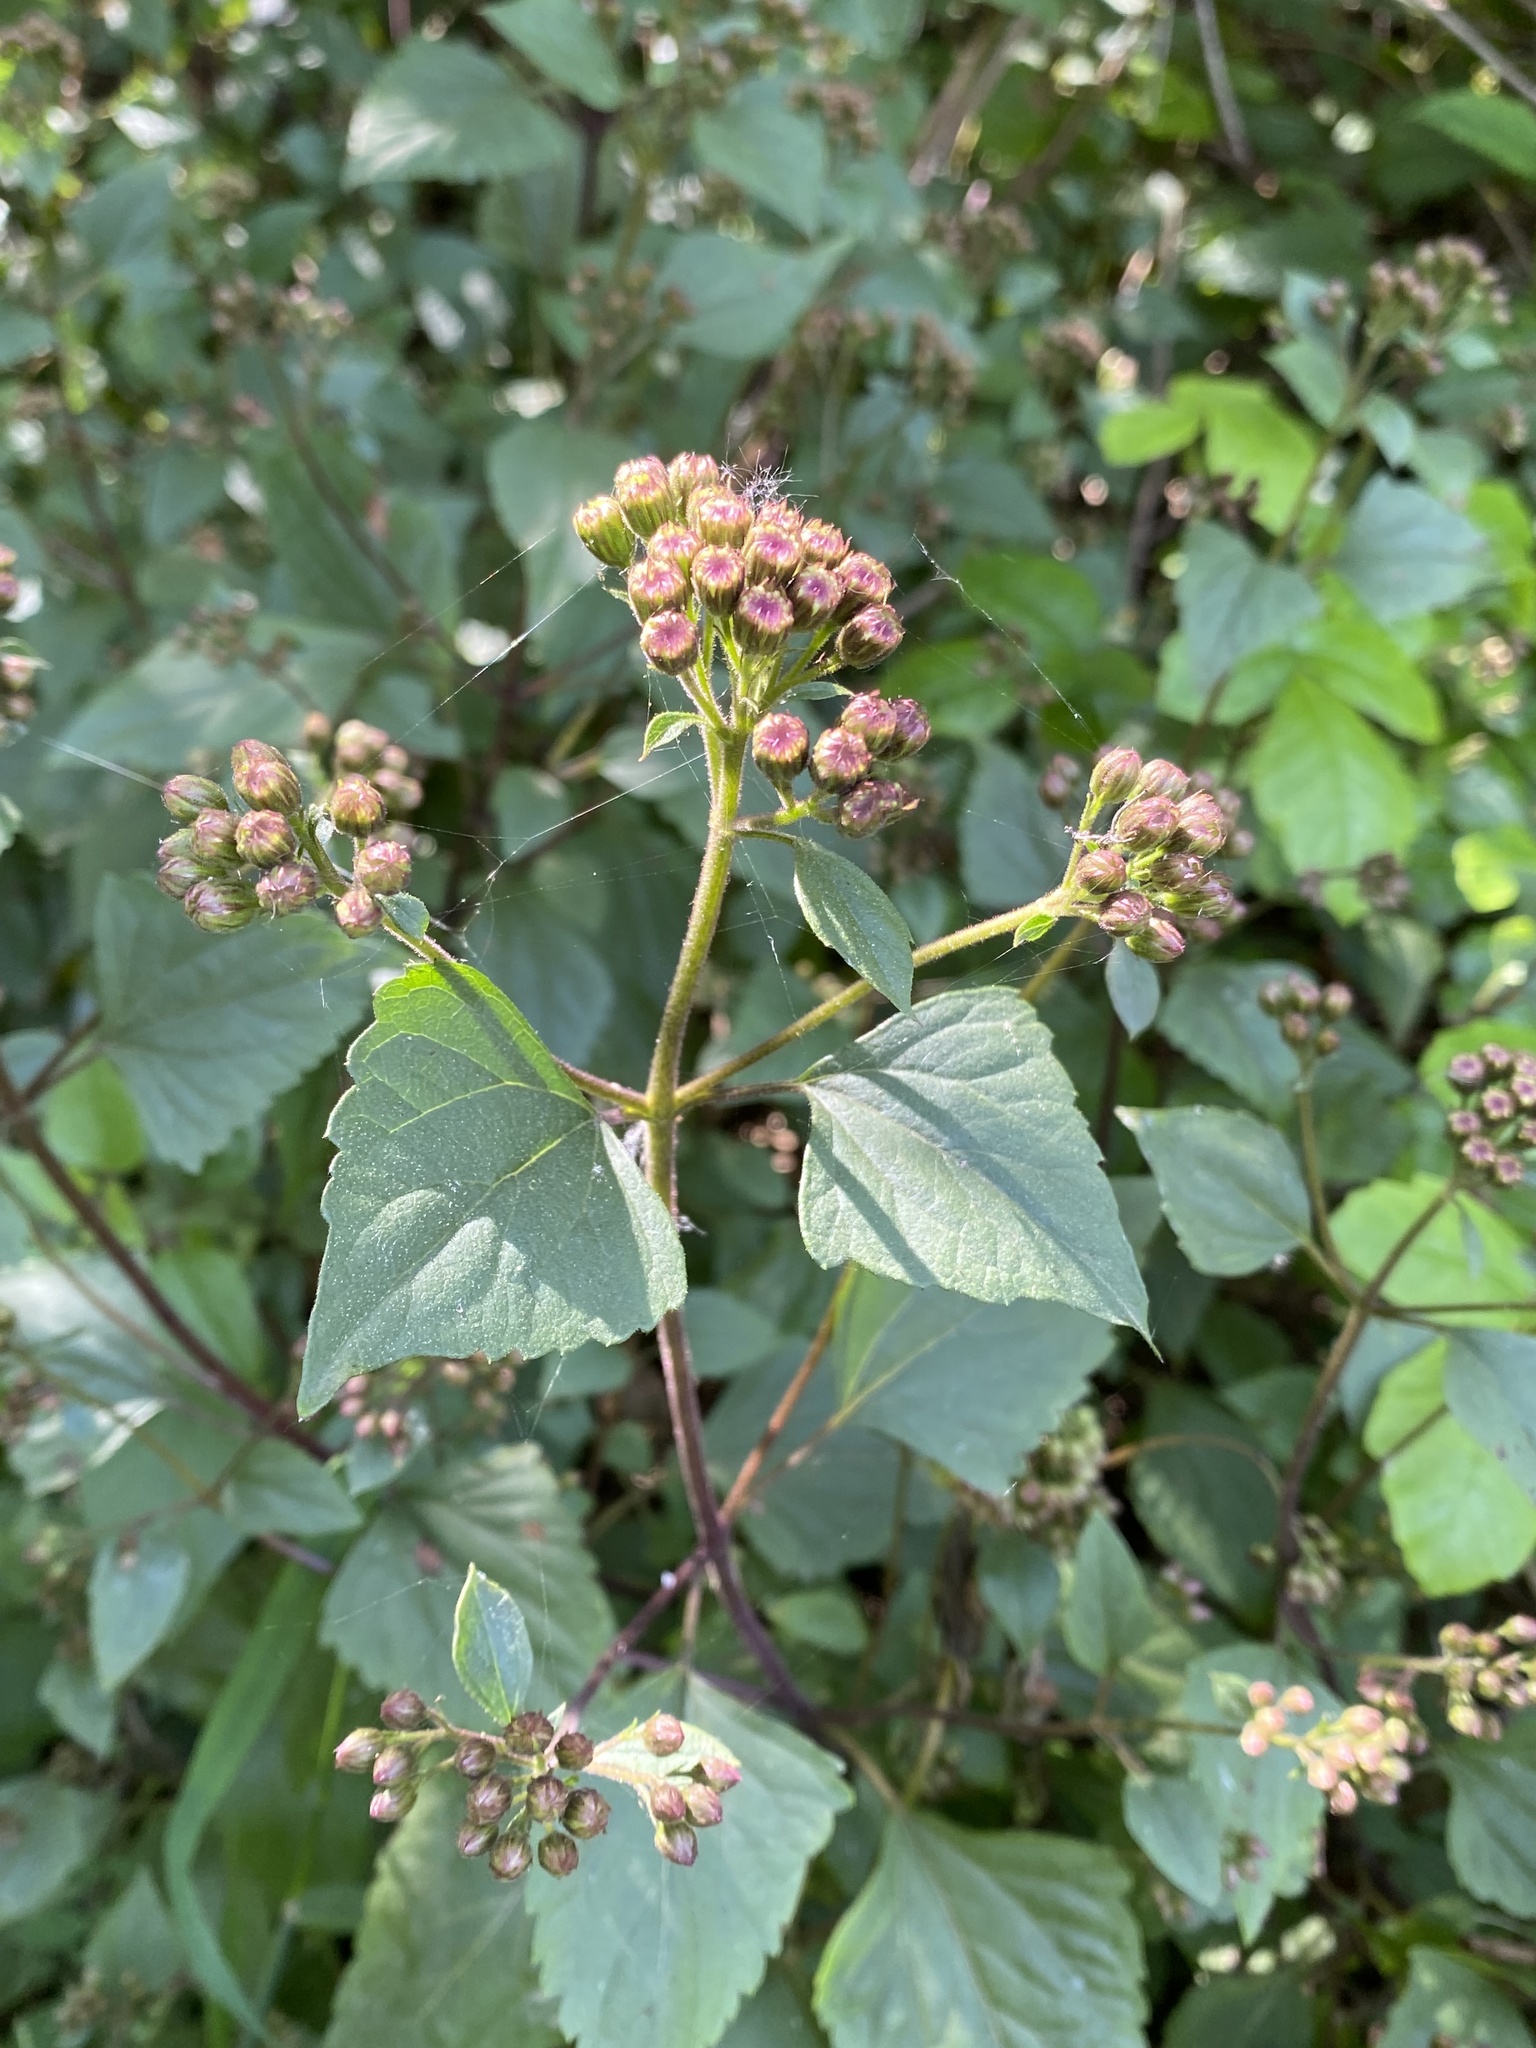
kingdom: Plantae
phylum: Tracheophyta
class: Magnoliopsida
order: Asterales
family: Asteraceae
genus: Ageratina
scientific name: Ageratina adenophora
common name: Sticky snakeroot
